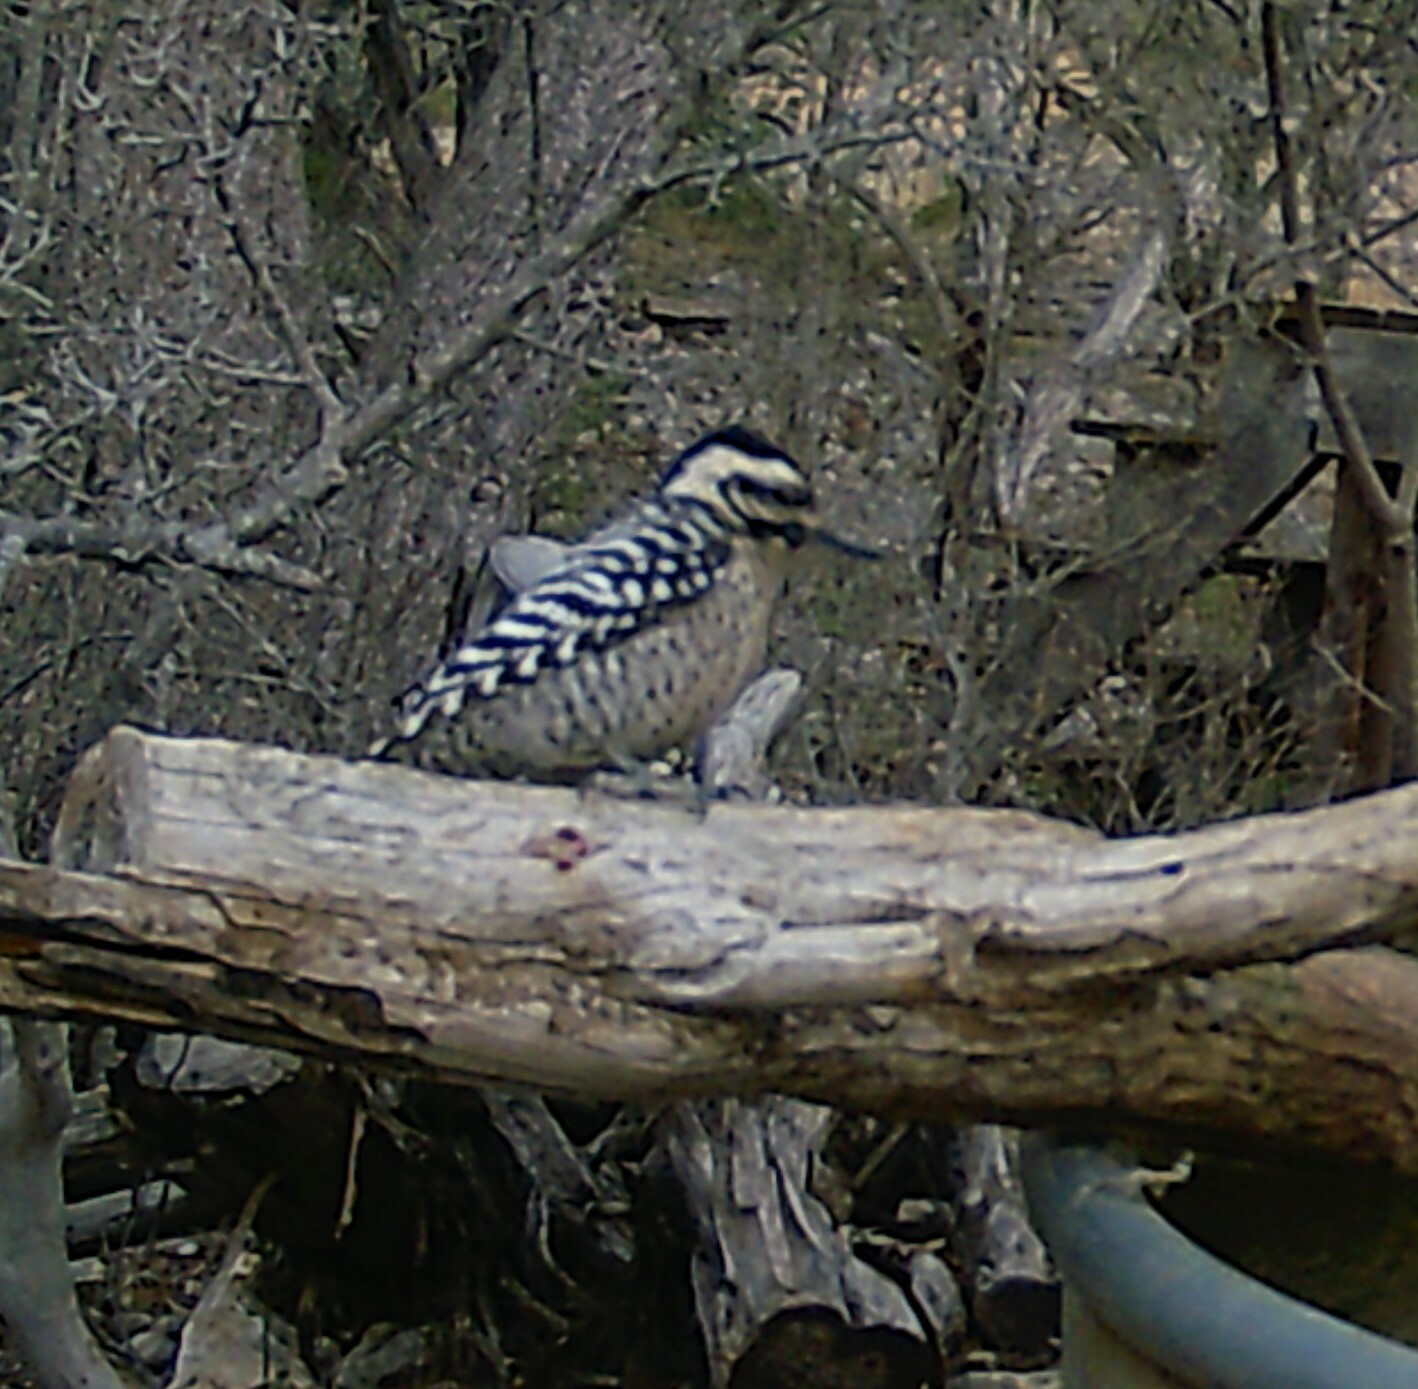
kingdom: Animalia
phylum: Chordata
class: Aves
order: Piciformes
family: Picidae
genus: Dryobates
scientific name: Dryobates scalaris
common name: Ladder-backed woodpecker
